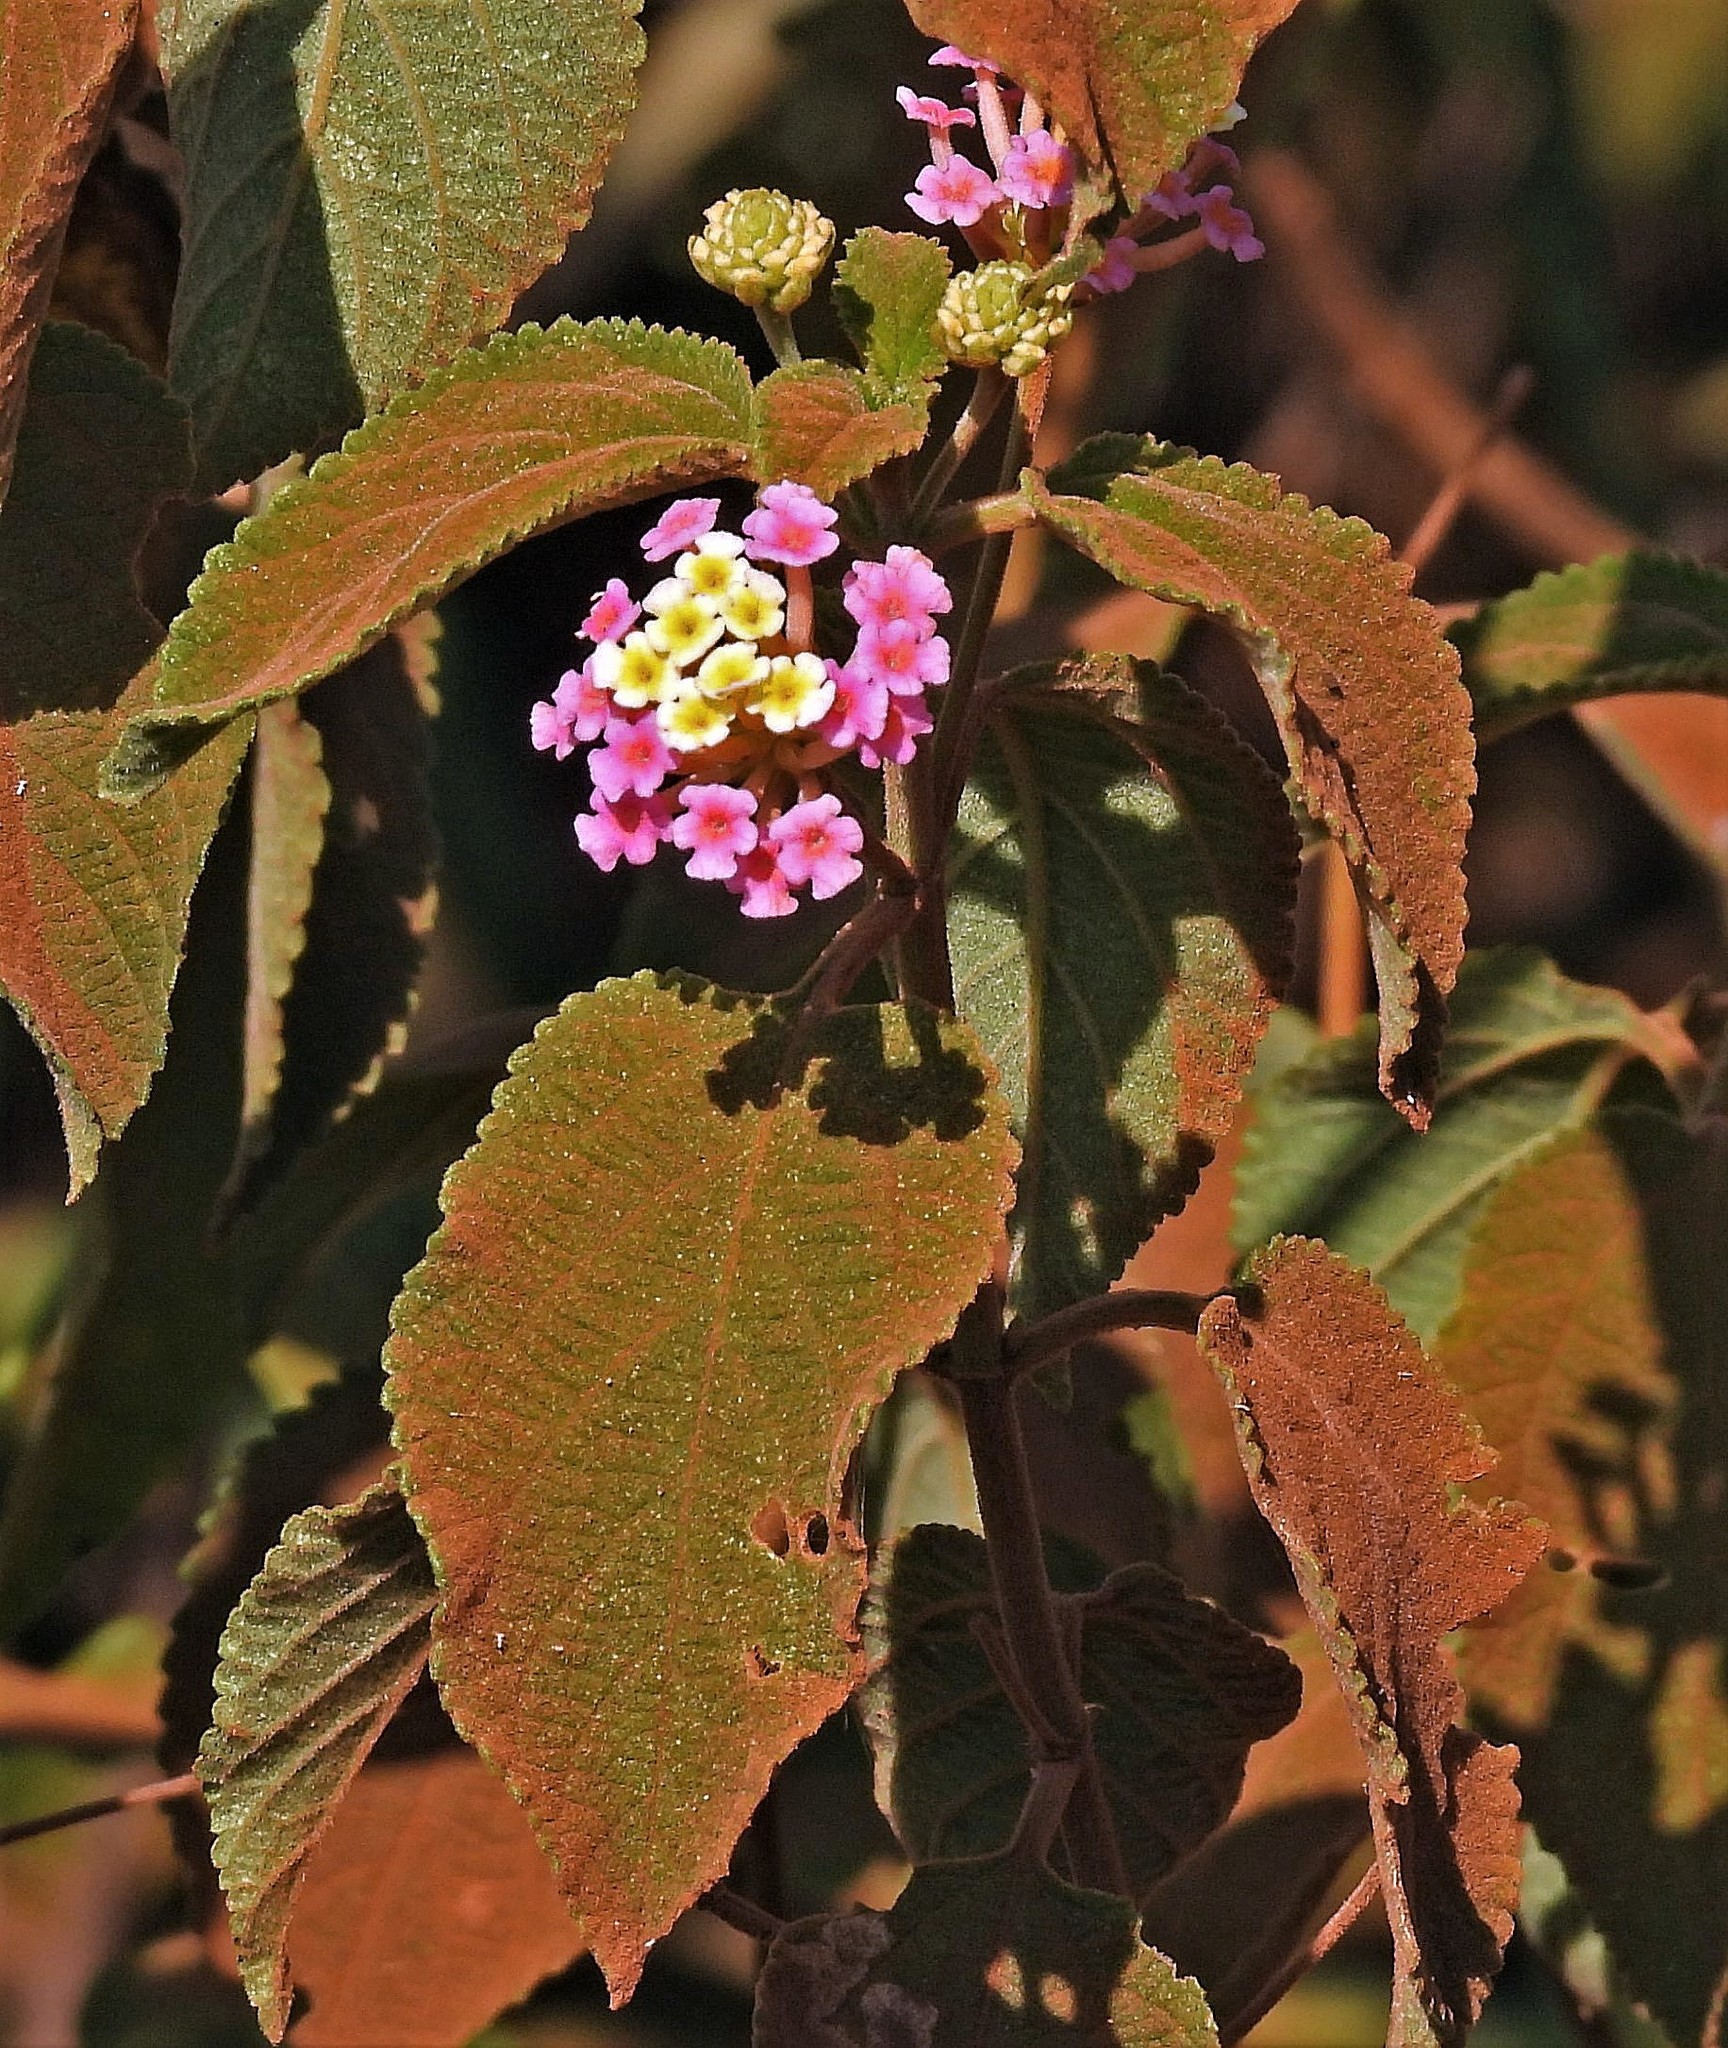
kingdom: Plantae
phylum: Tracheophyta
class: Magnoliopsida
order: Lamiales
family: Verbenaceae
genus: Lantana
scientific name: Lantana camara
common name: Lantana
